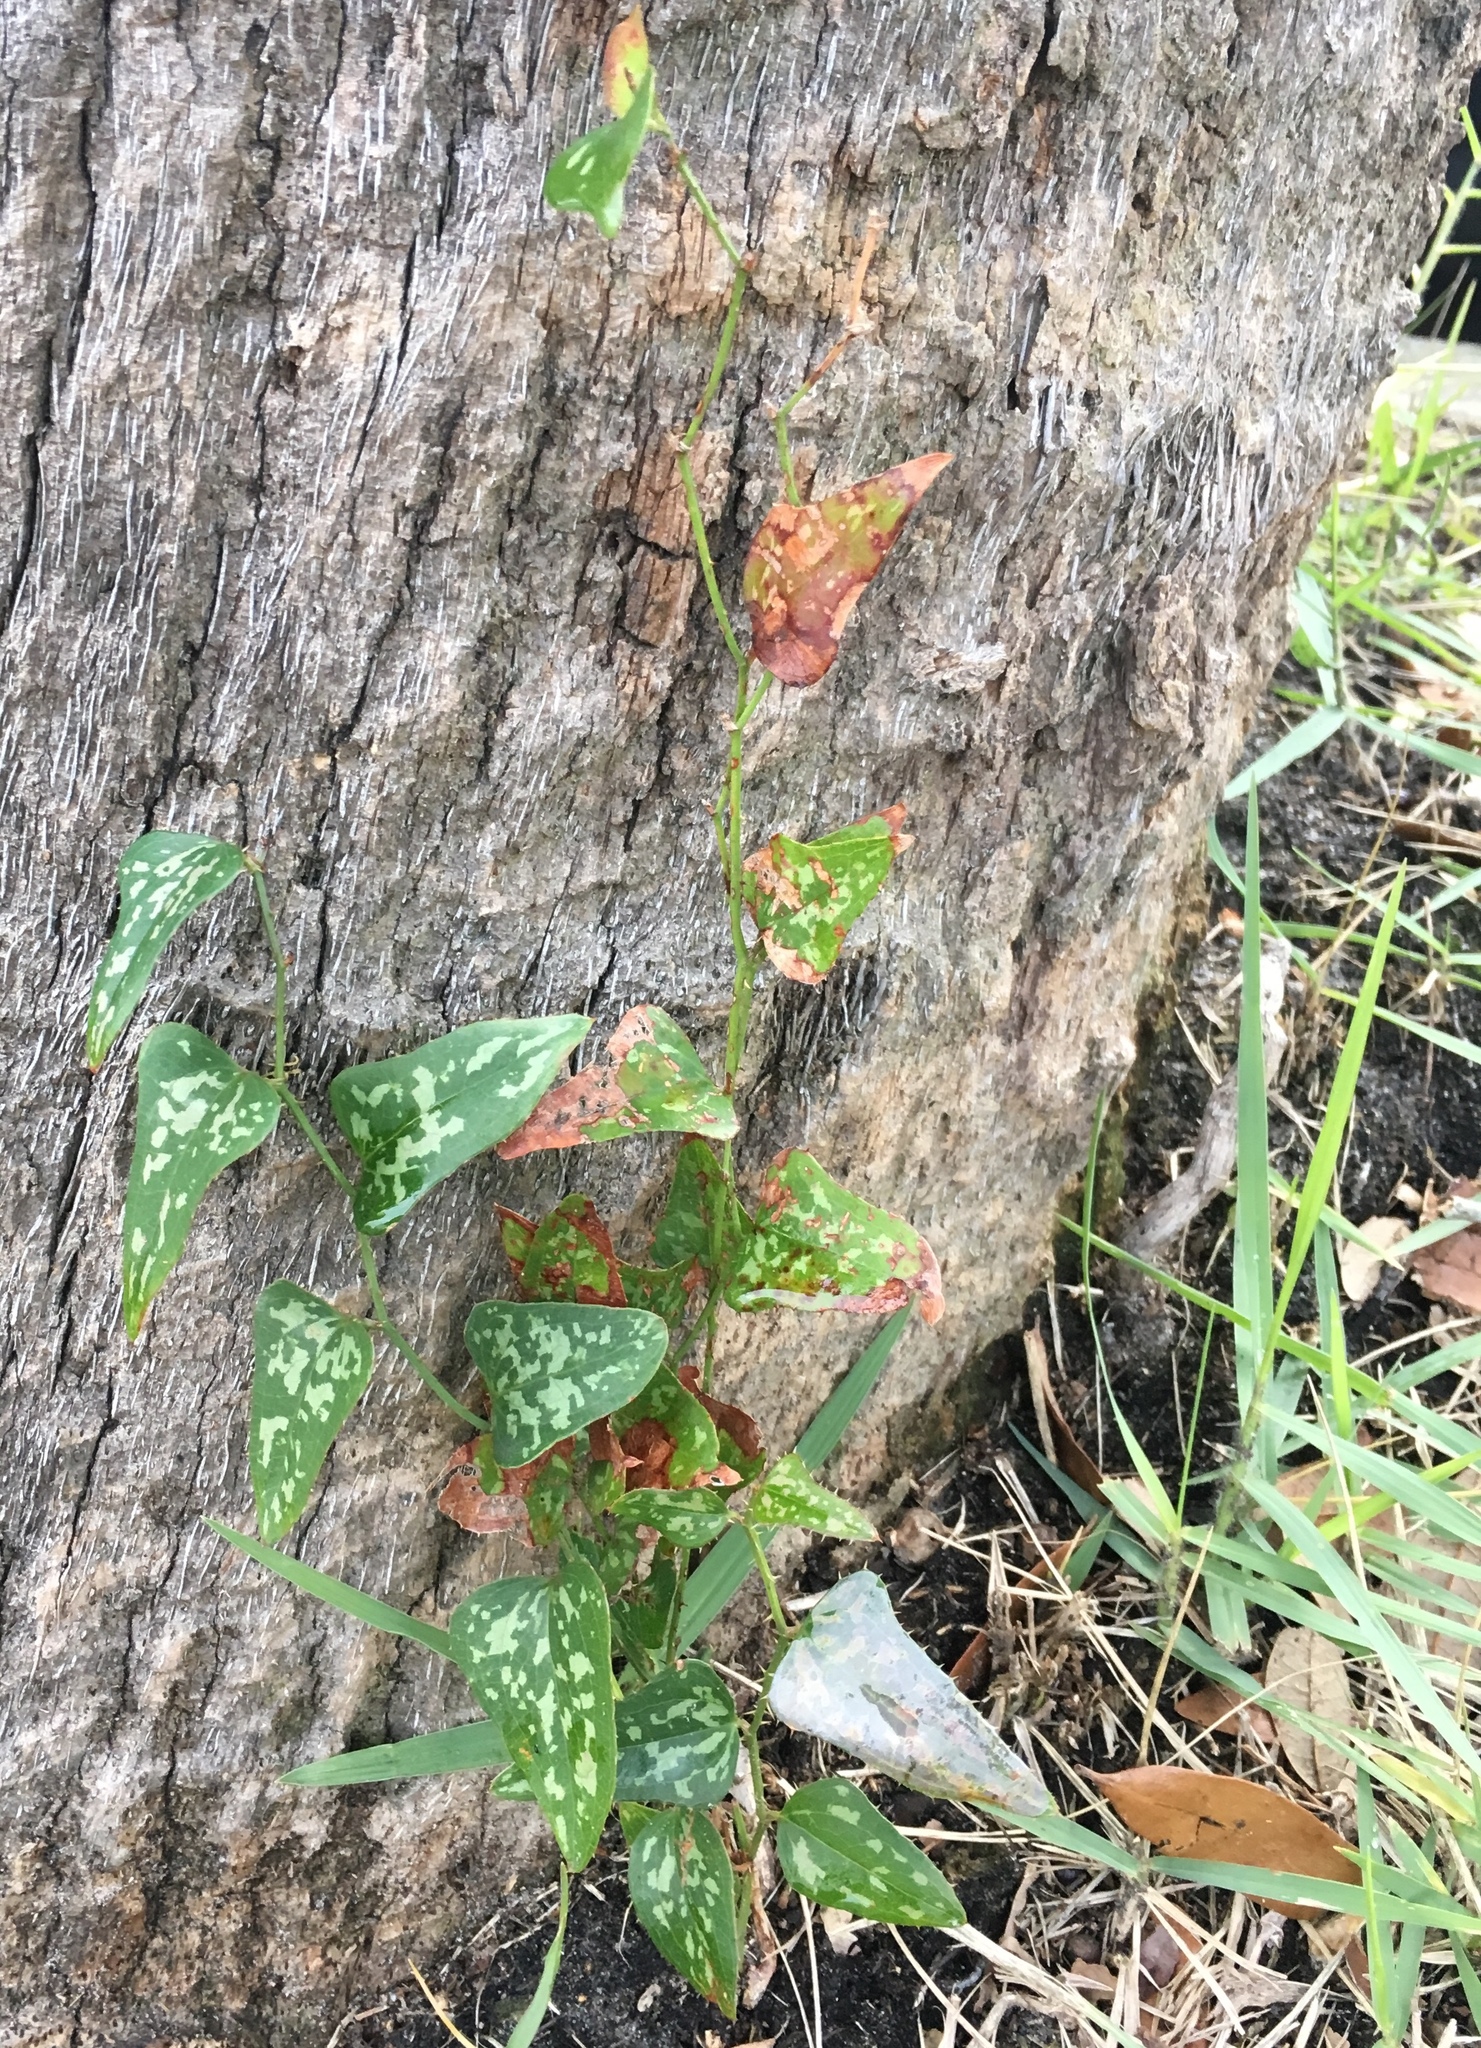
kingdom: Plantae
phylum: Tracheophyta
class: Liliopsida
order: Liliales
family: Smilacaceae
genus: Smilax
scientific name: Smilax bona-nox
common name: Catbrier
